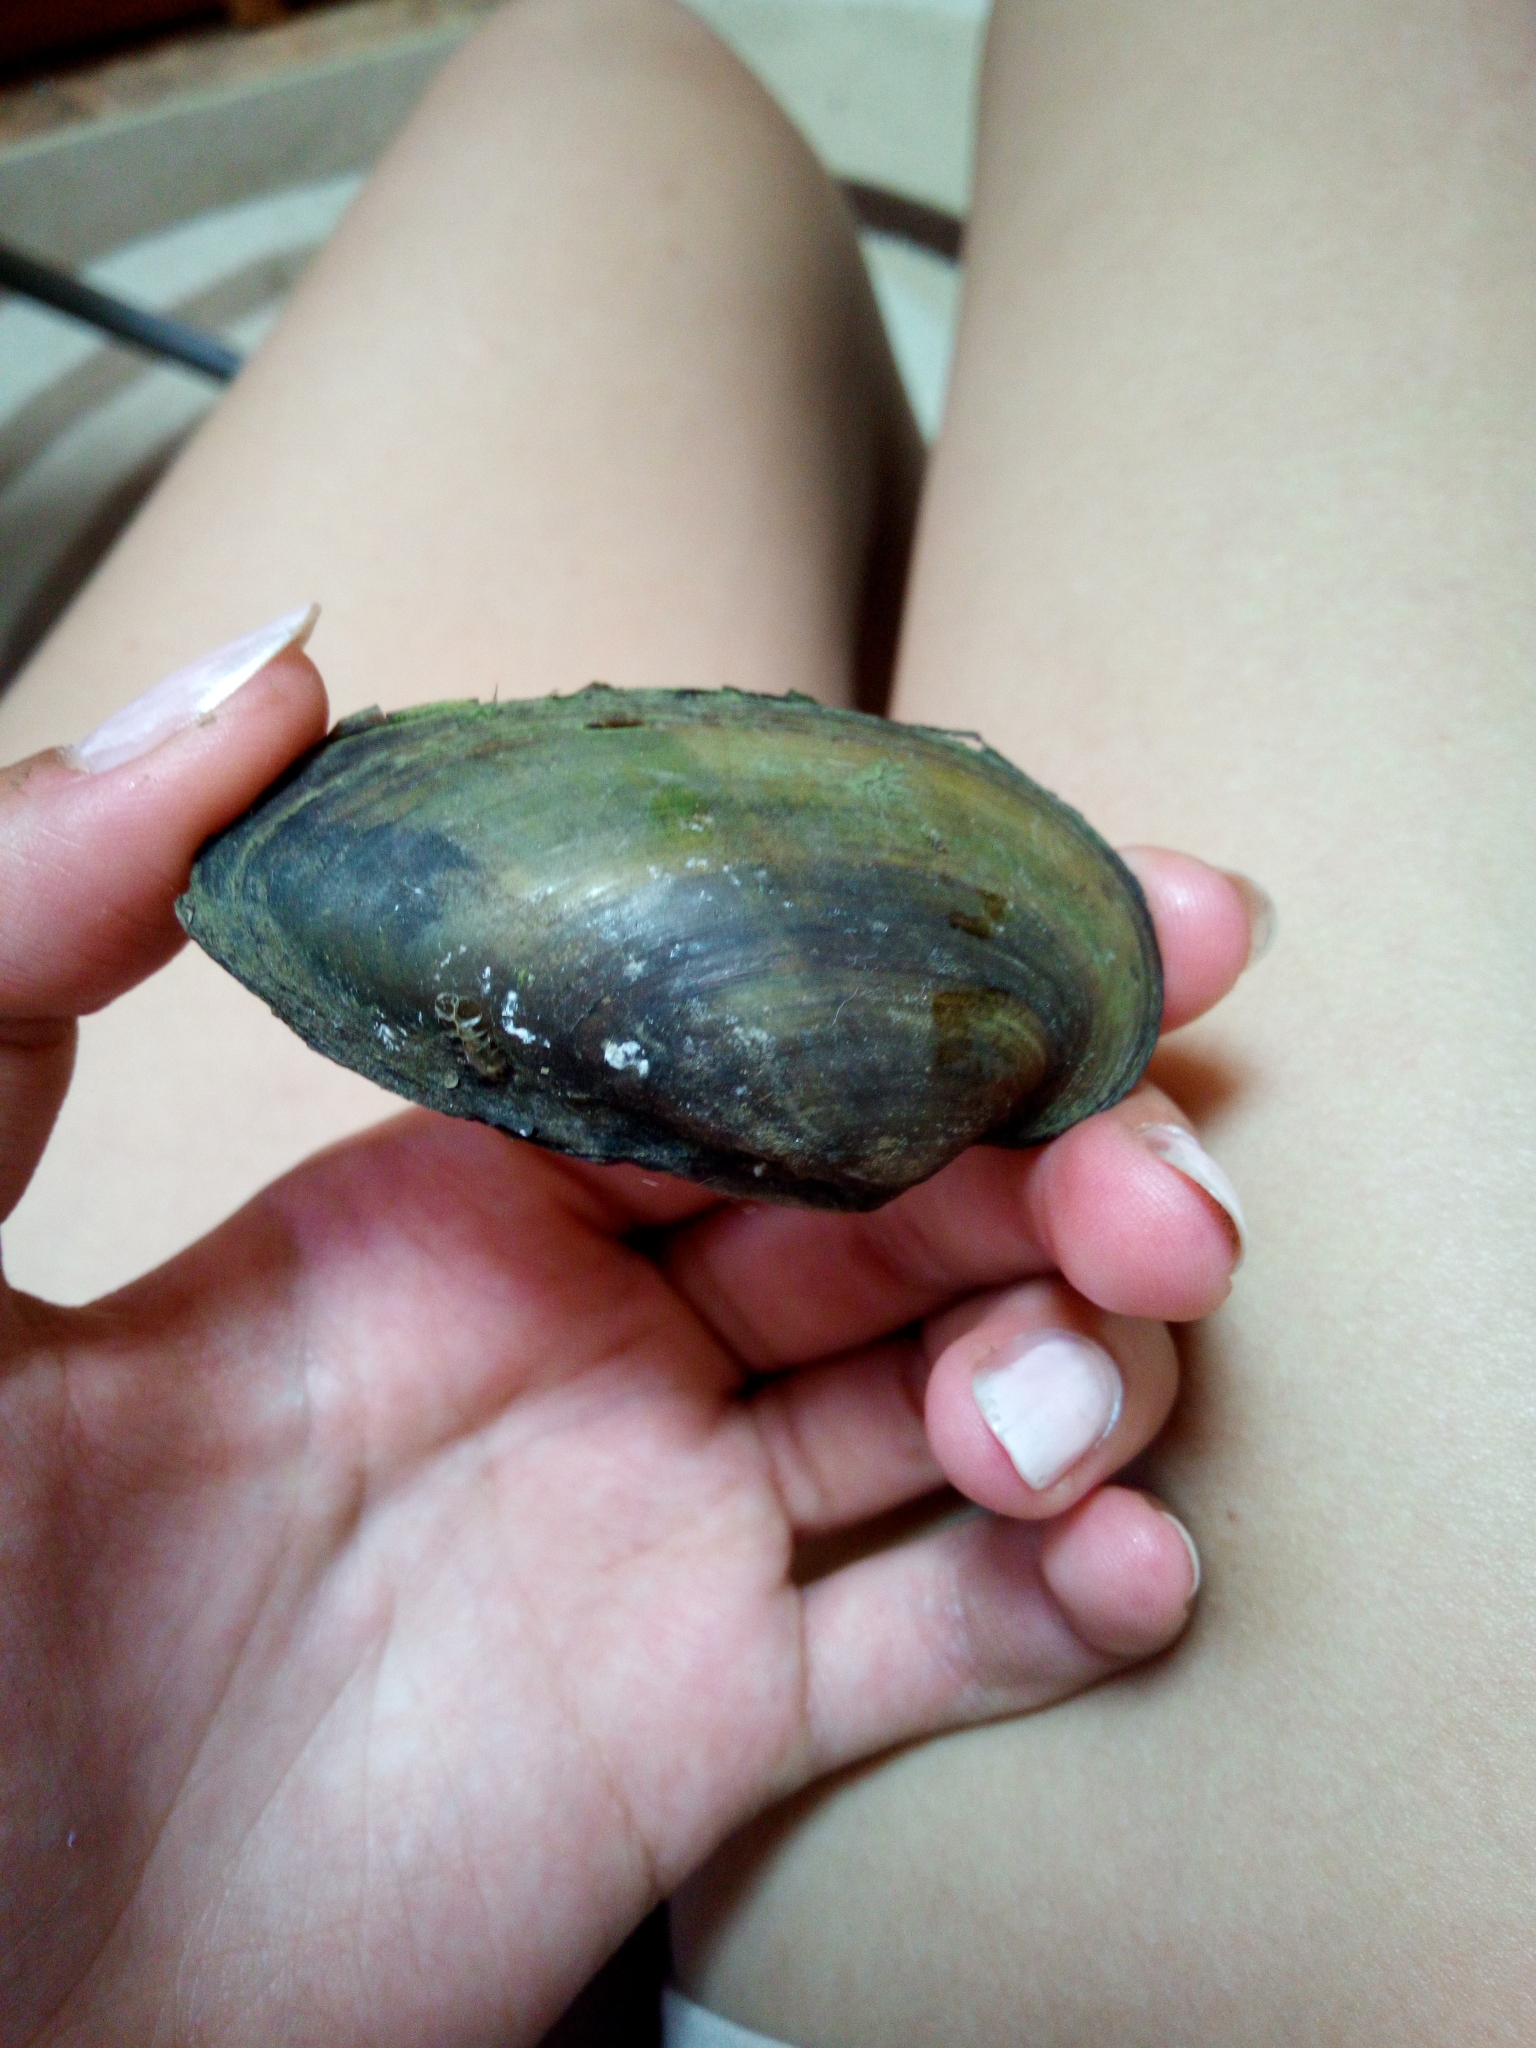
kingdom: Animalia
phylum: Mollusca
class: Bivalvia
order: Unionida
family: Unionidae
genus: Unio
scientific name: Unio tumidus
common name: Swollen river mussel
